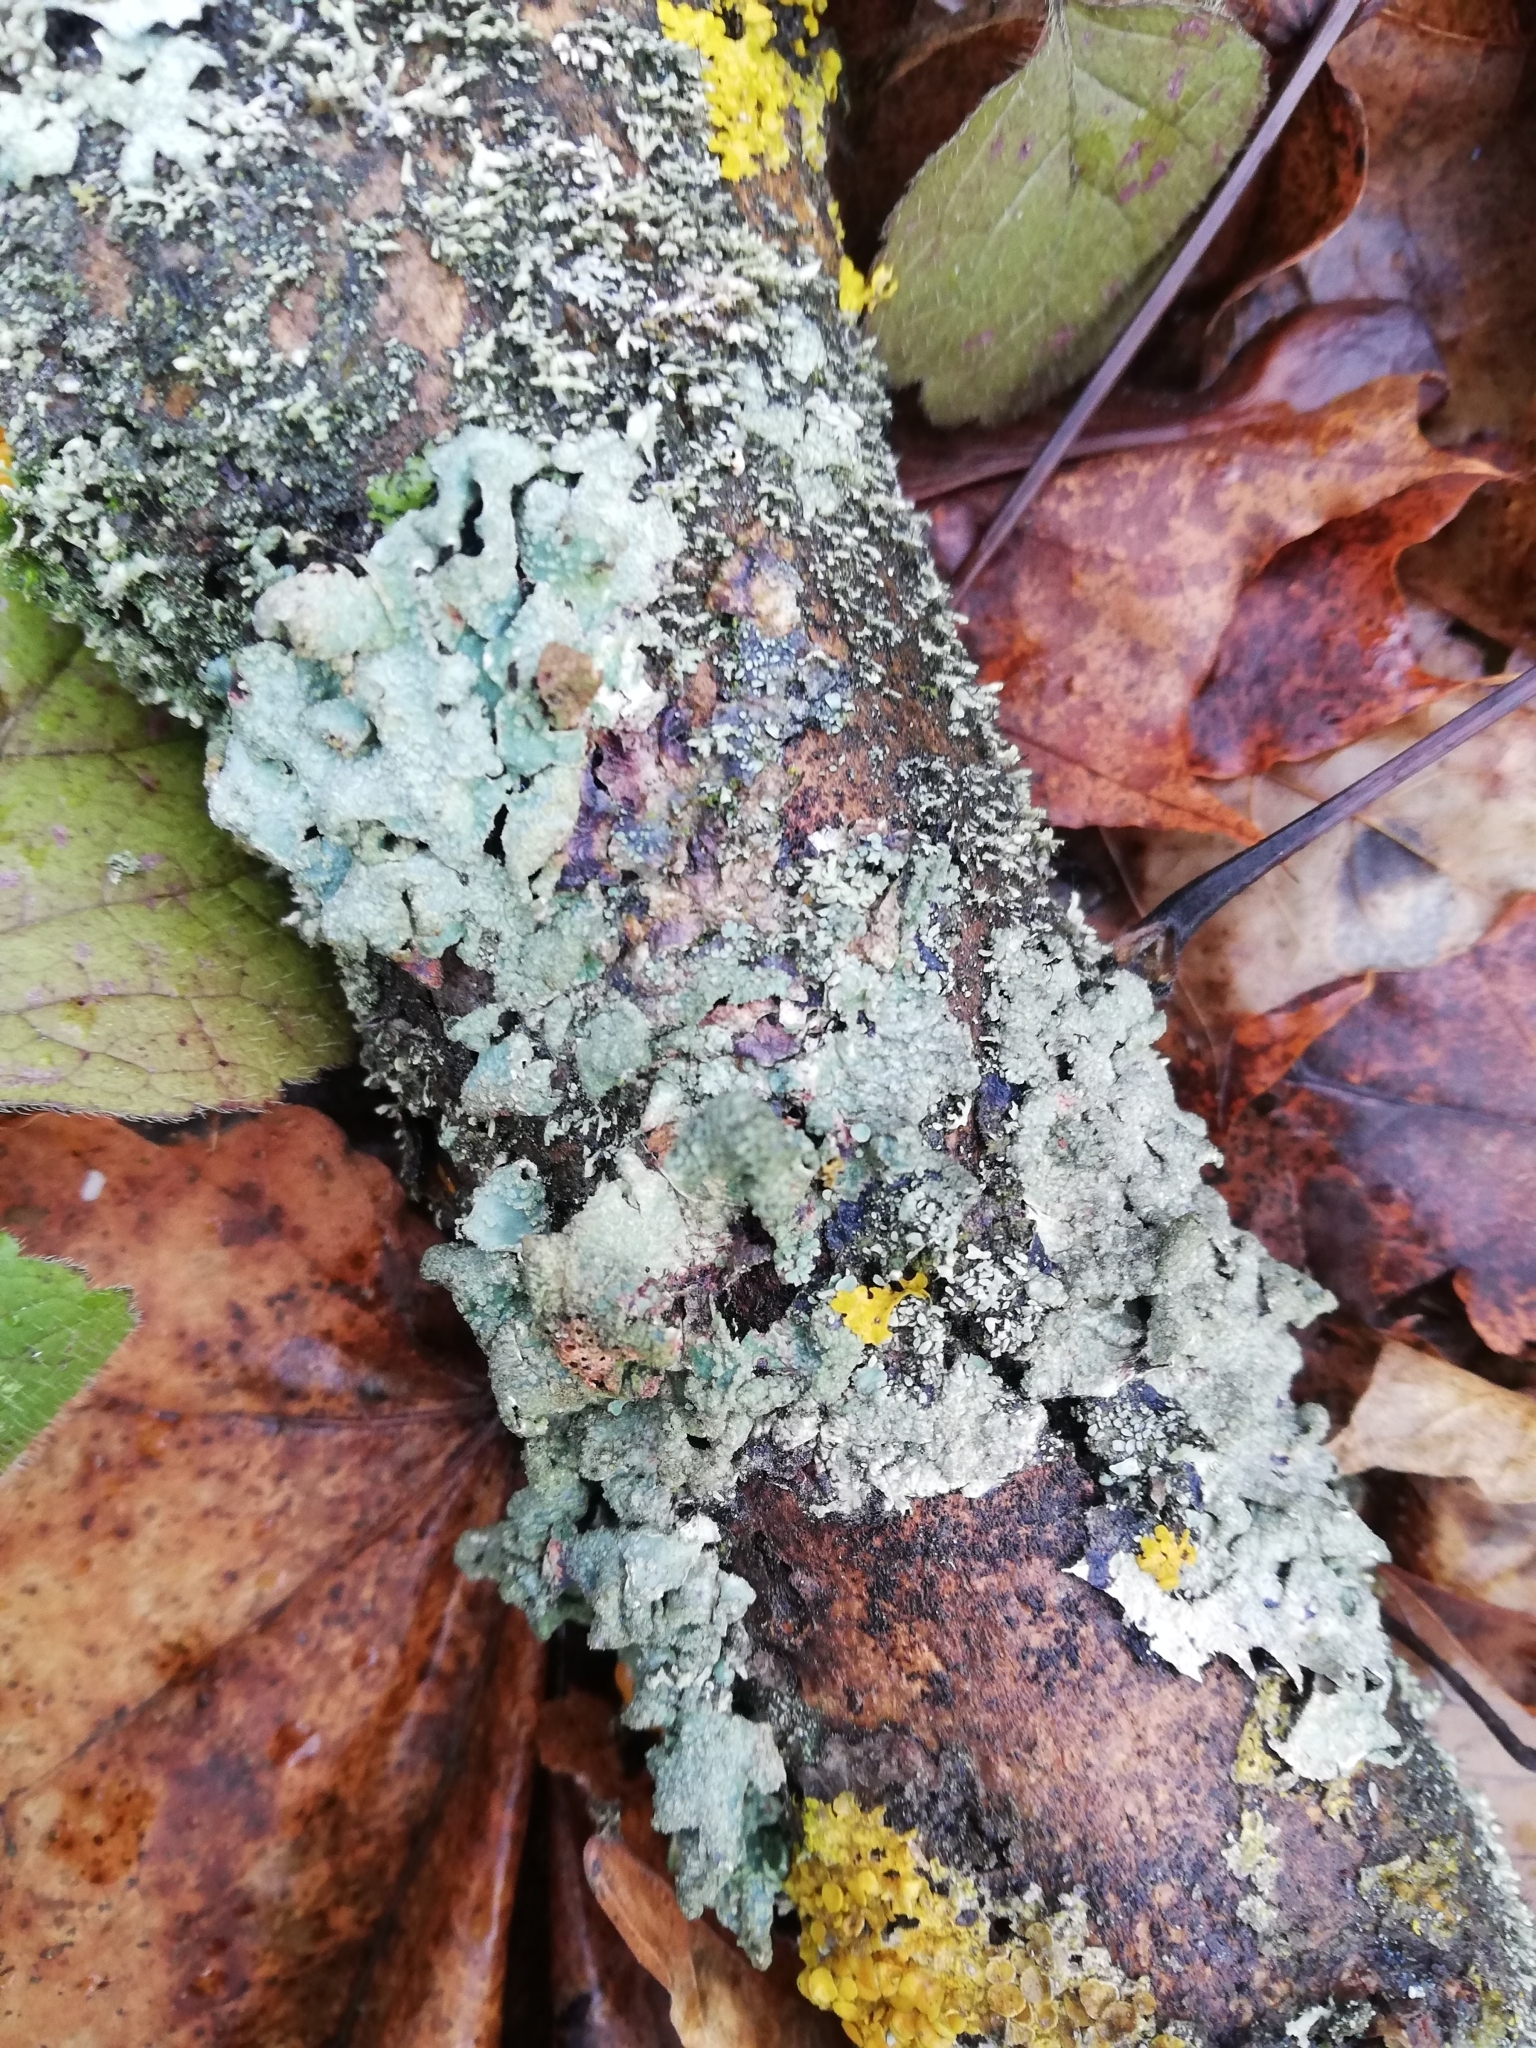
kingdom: Fungi
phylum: Ascomycota
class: Lecanoromycetes
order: Lecanorales
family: Parmeliaceae
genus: Parmelia
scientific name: Parmelia sulcata
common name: Netted shield lichen
